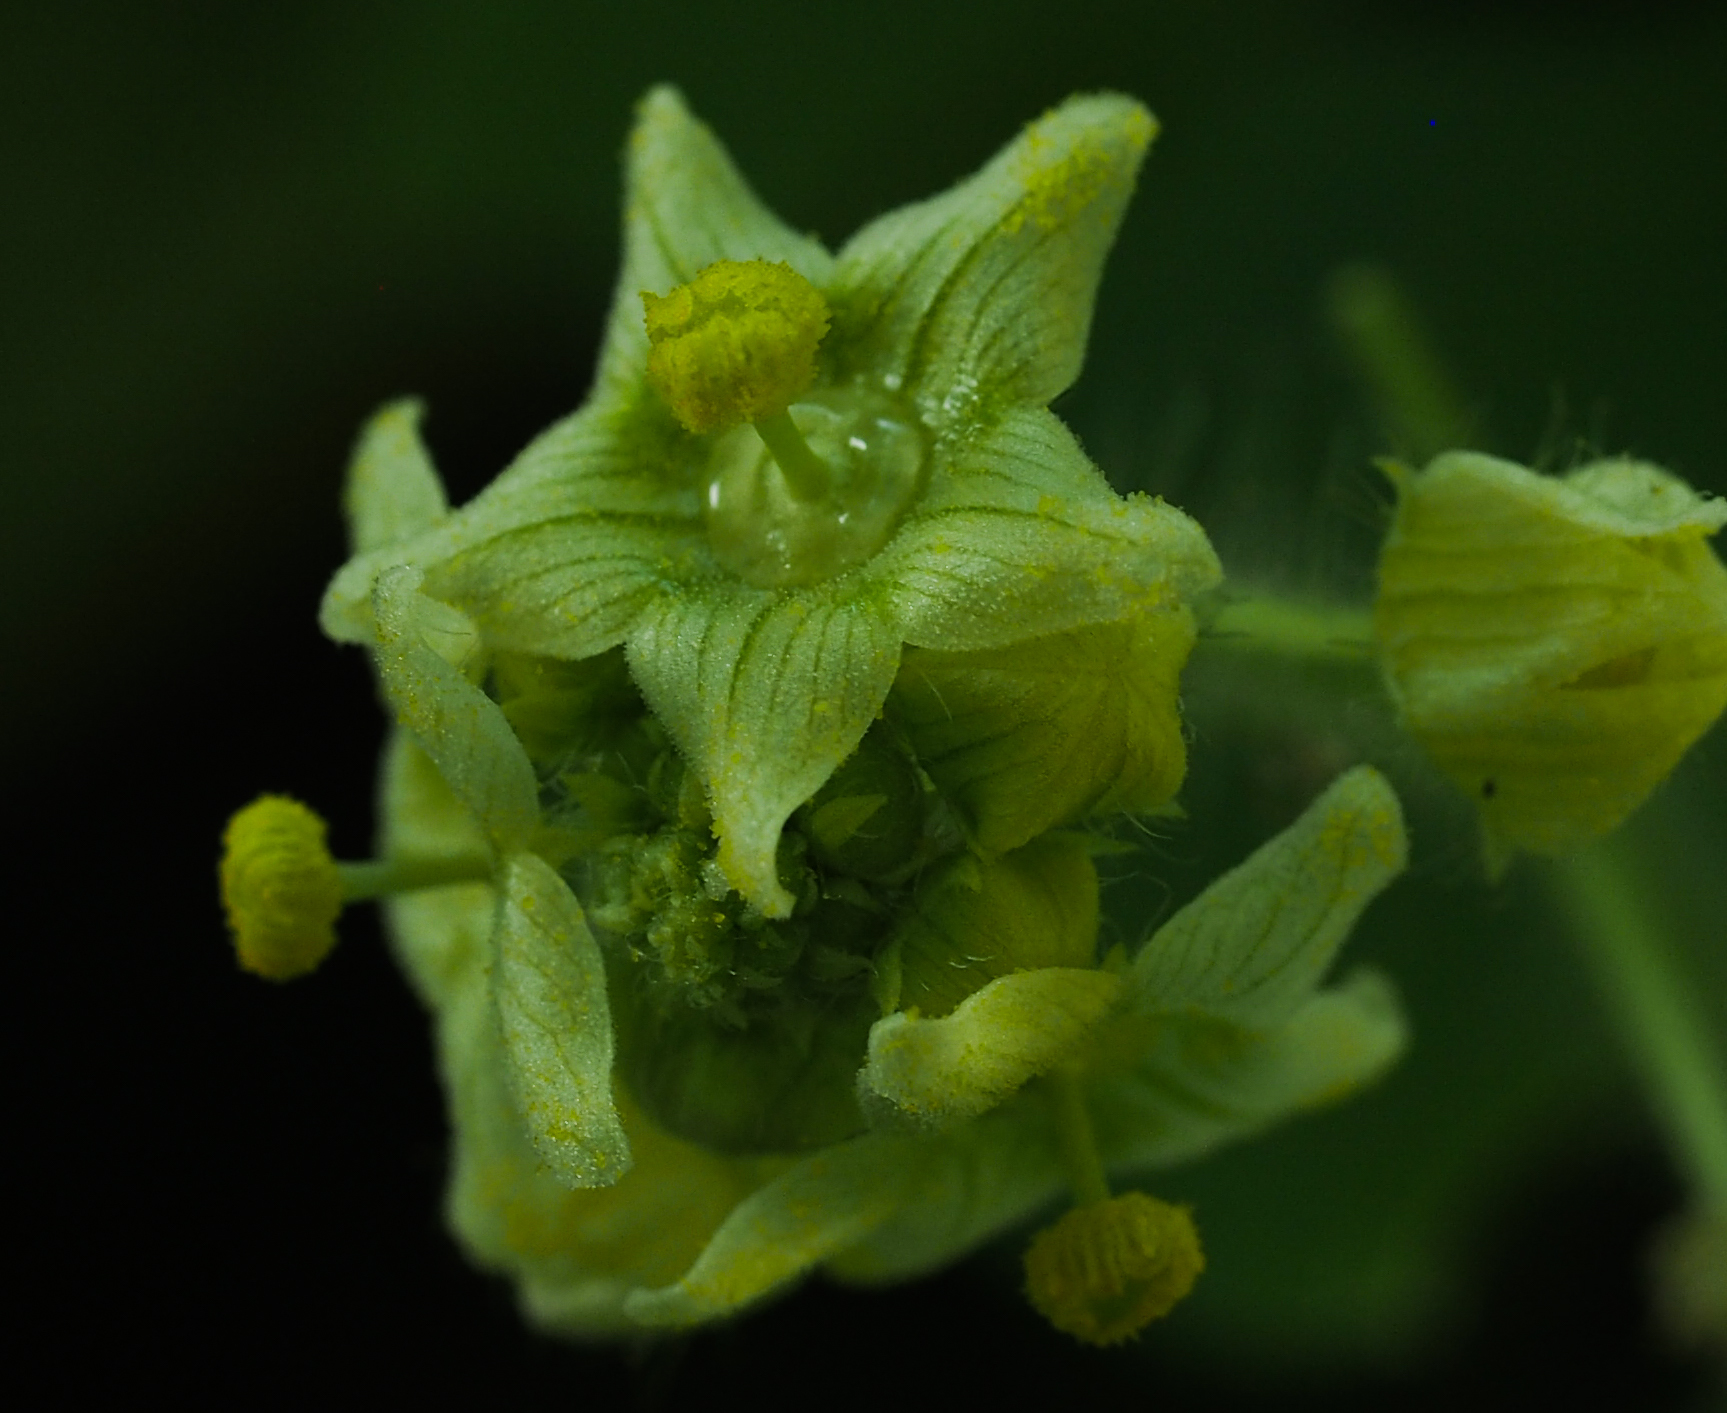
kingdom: Plantae
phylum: Tracheophyta
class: Magnoliopsida
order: Cucurbitales
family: Cucurbitaceae
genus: Sicyos
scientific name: Sicyos angulatus
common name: Angled burr cucumber
